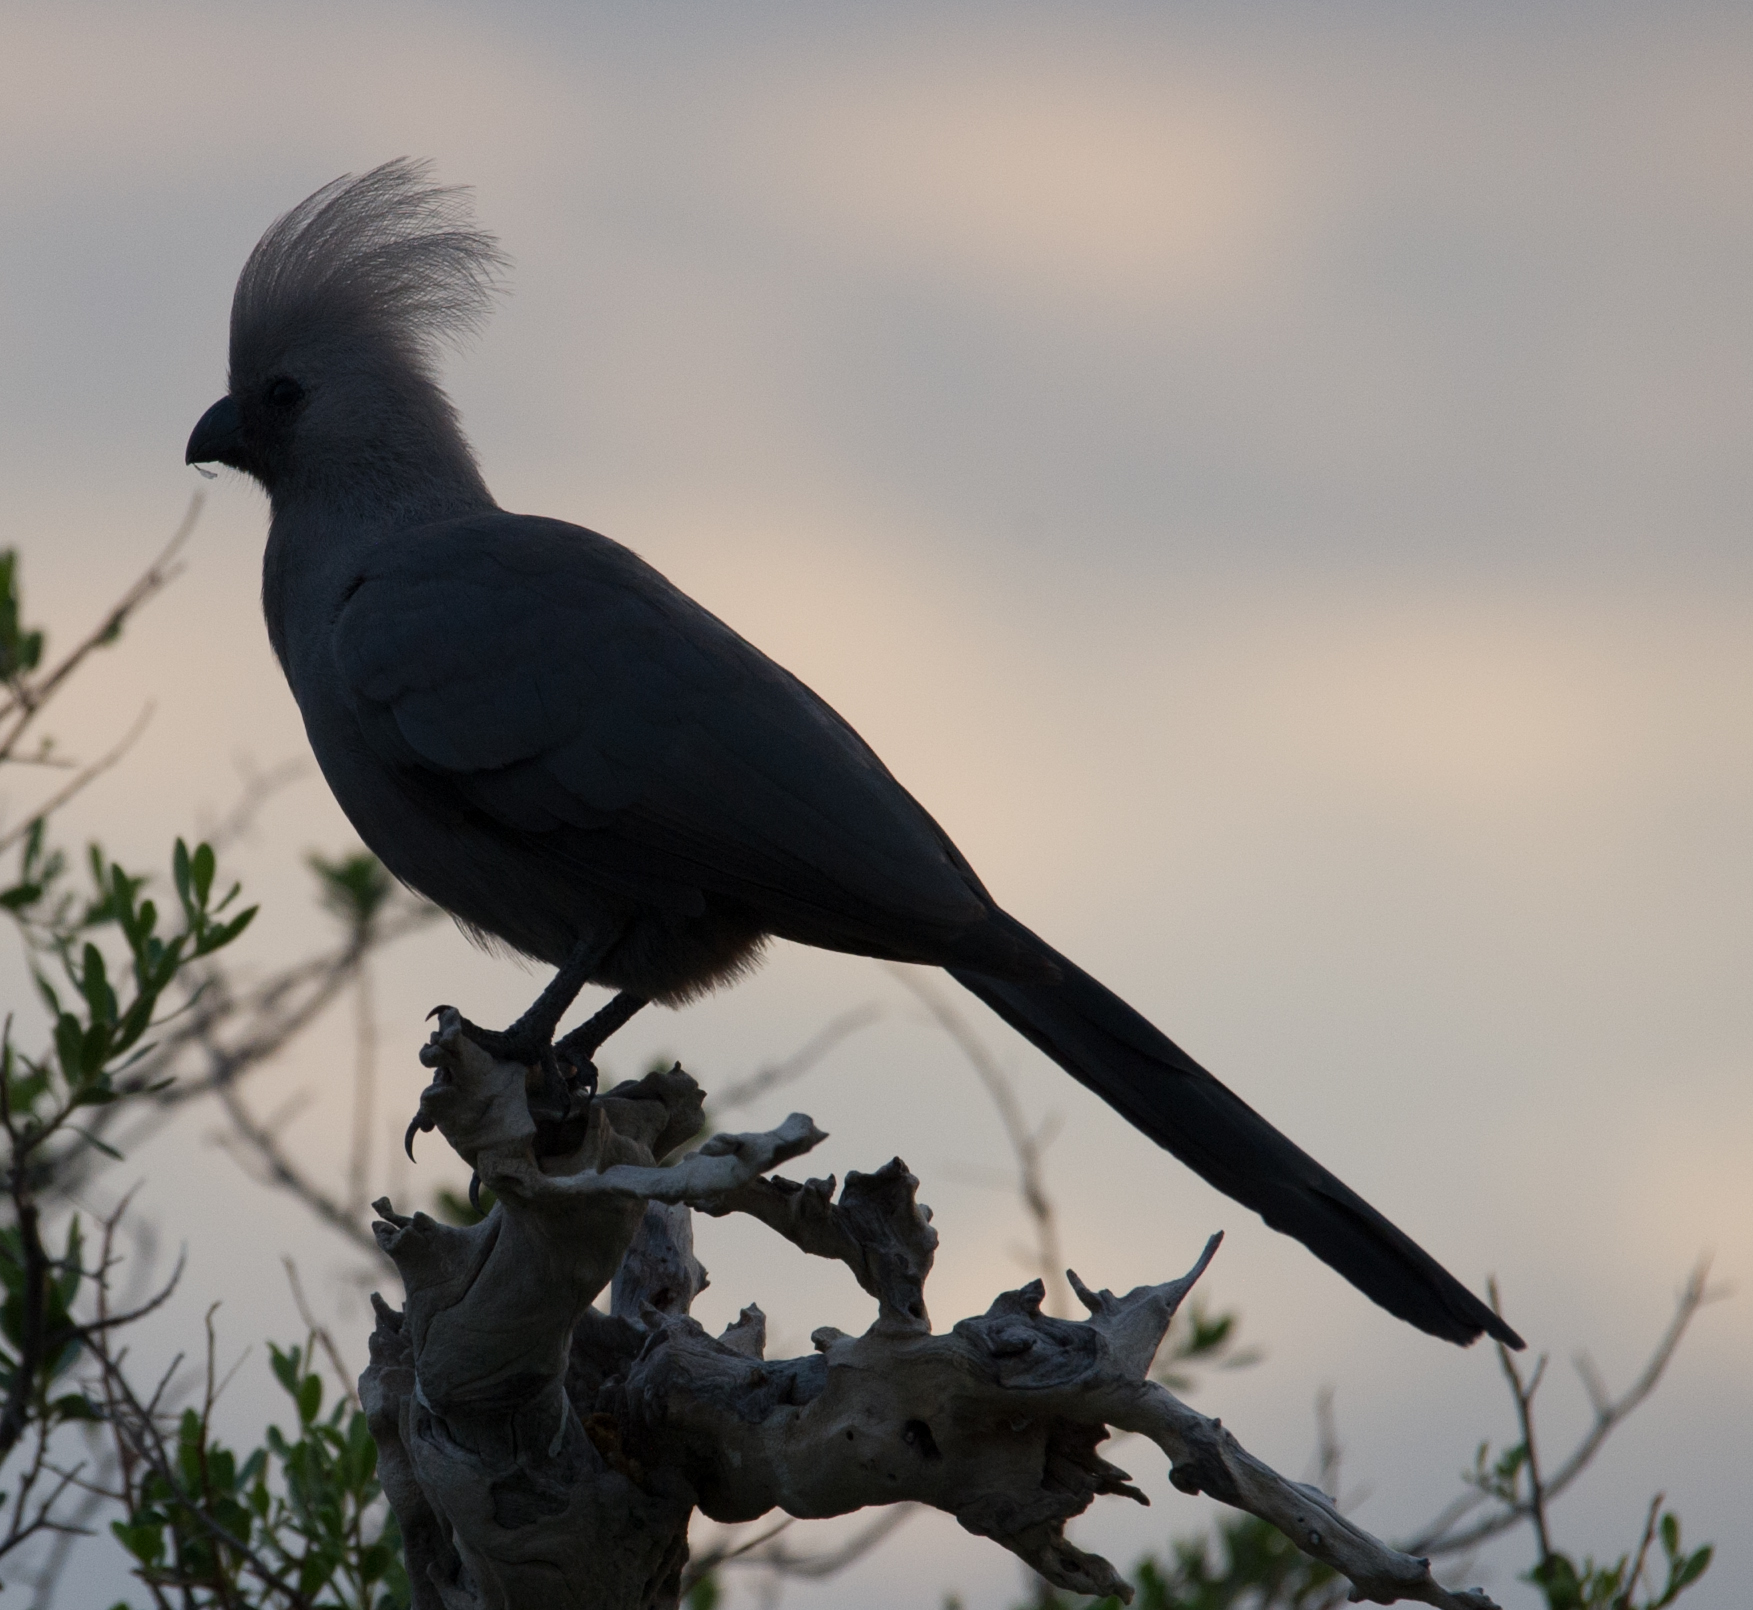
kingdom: Animalia
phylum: Chordata
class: Aves
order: Musophagiformes
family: Musophagidae
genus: Corythaixoides
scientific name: Corythaixoides concolor
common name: Grey go-away-bird
